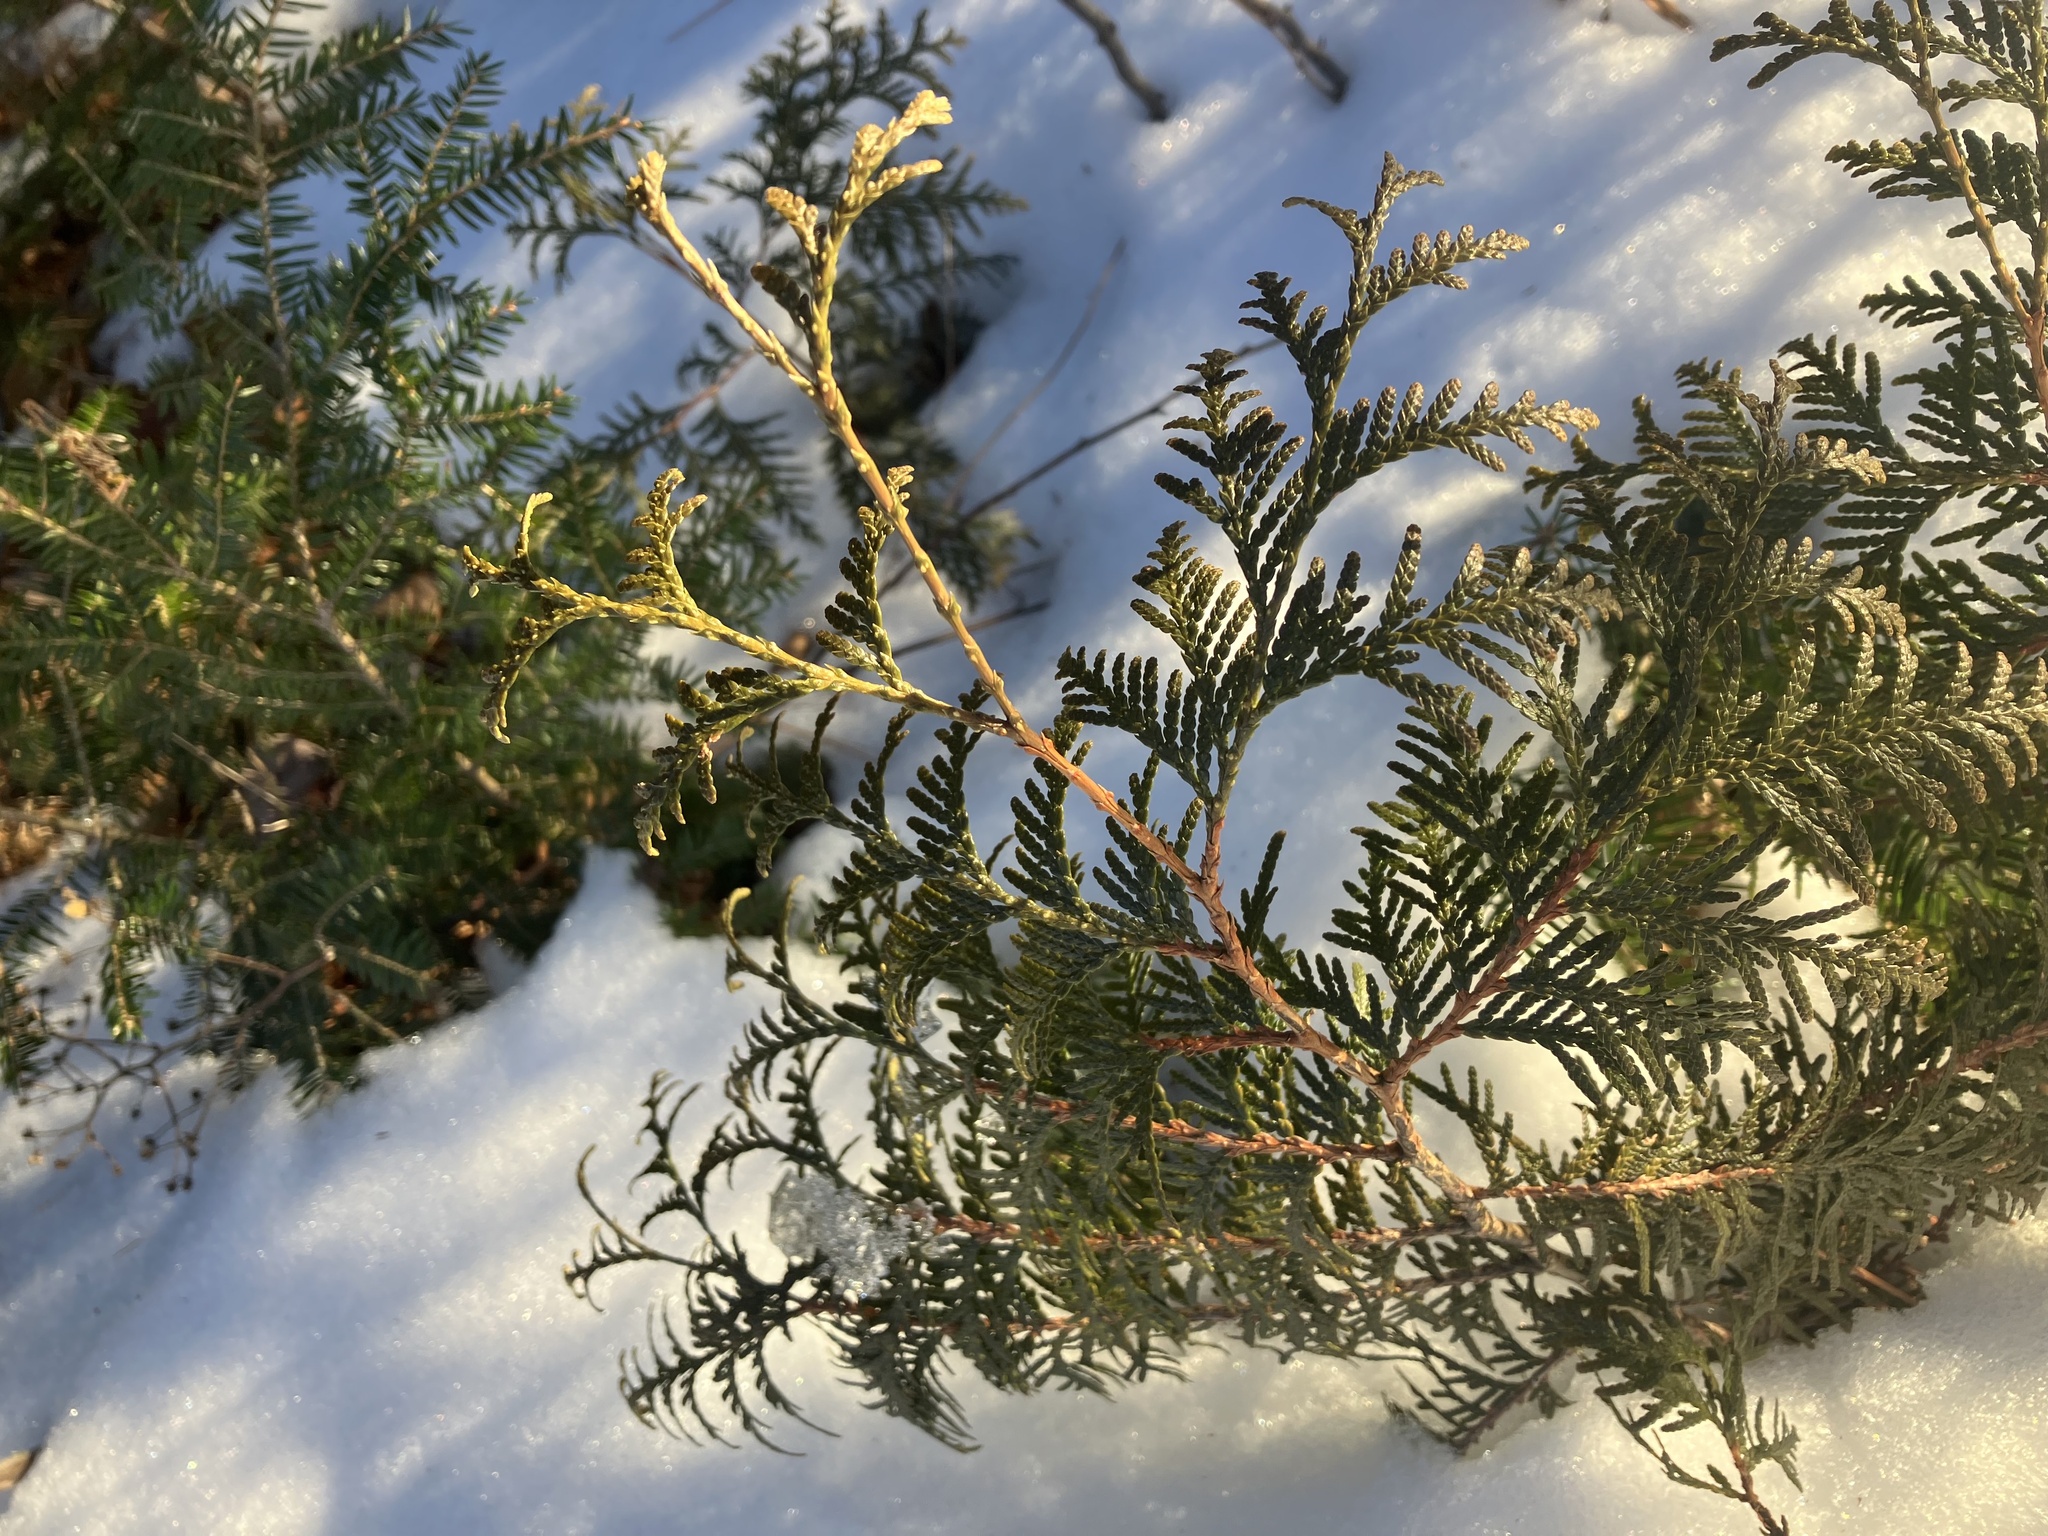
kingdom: Plantae
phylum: Tracheophyta
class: Pinopsida
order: Pinales
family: Cupressaceae
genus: Thuja
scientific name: Thuja occidentalis
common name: Northern white-cedar
